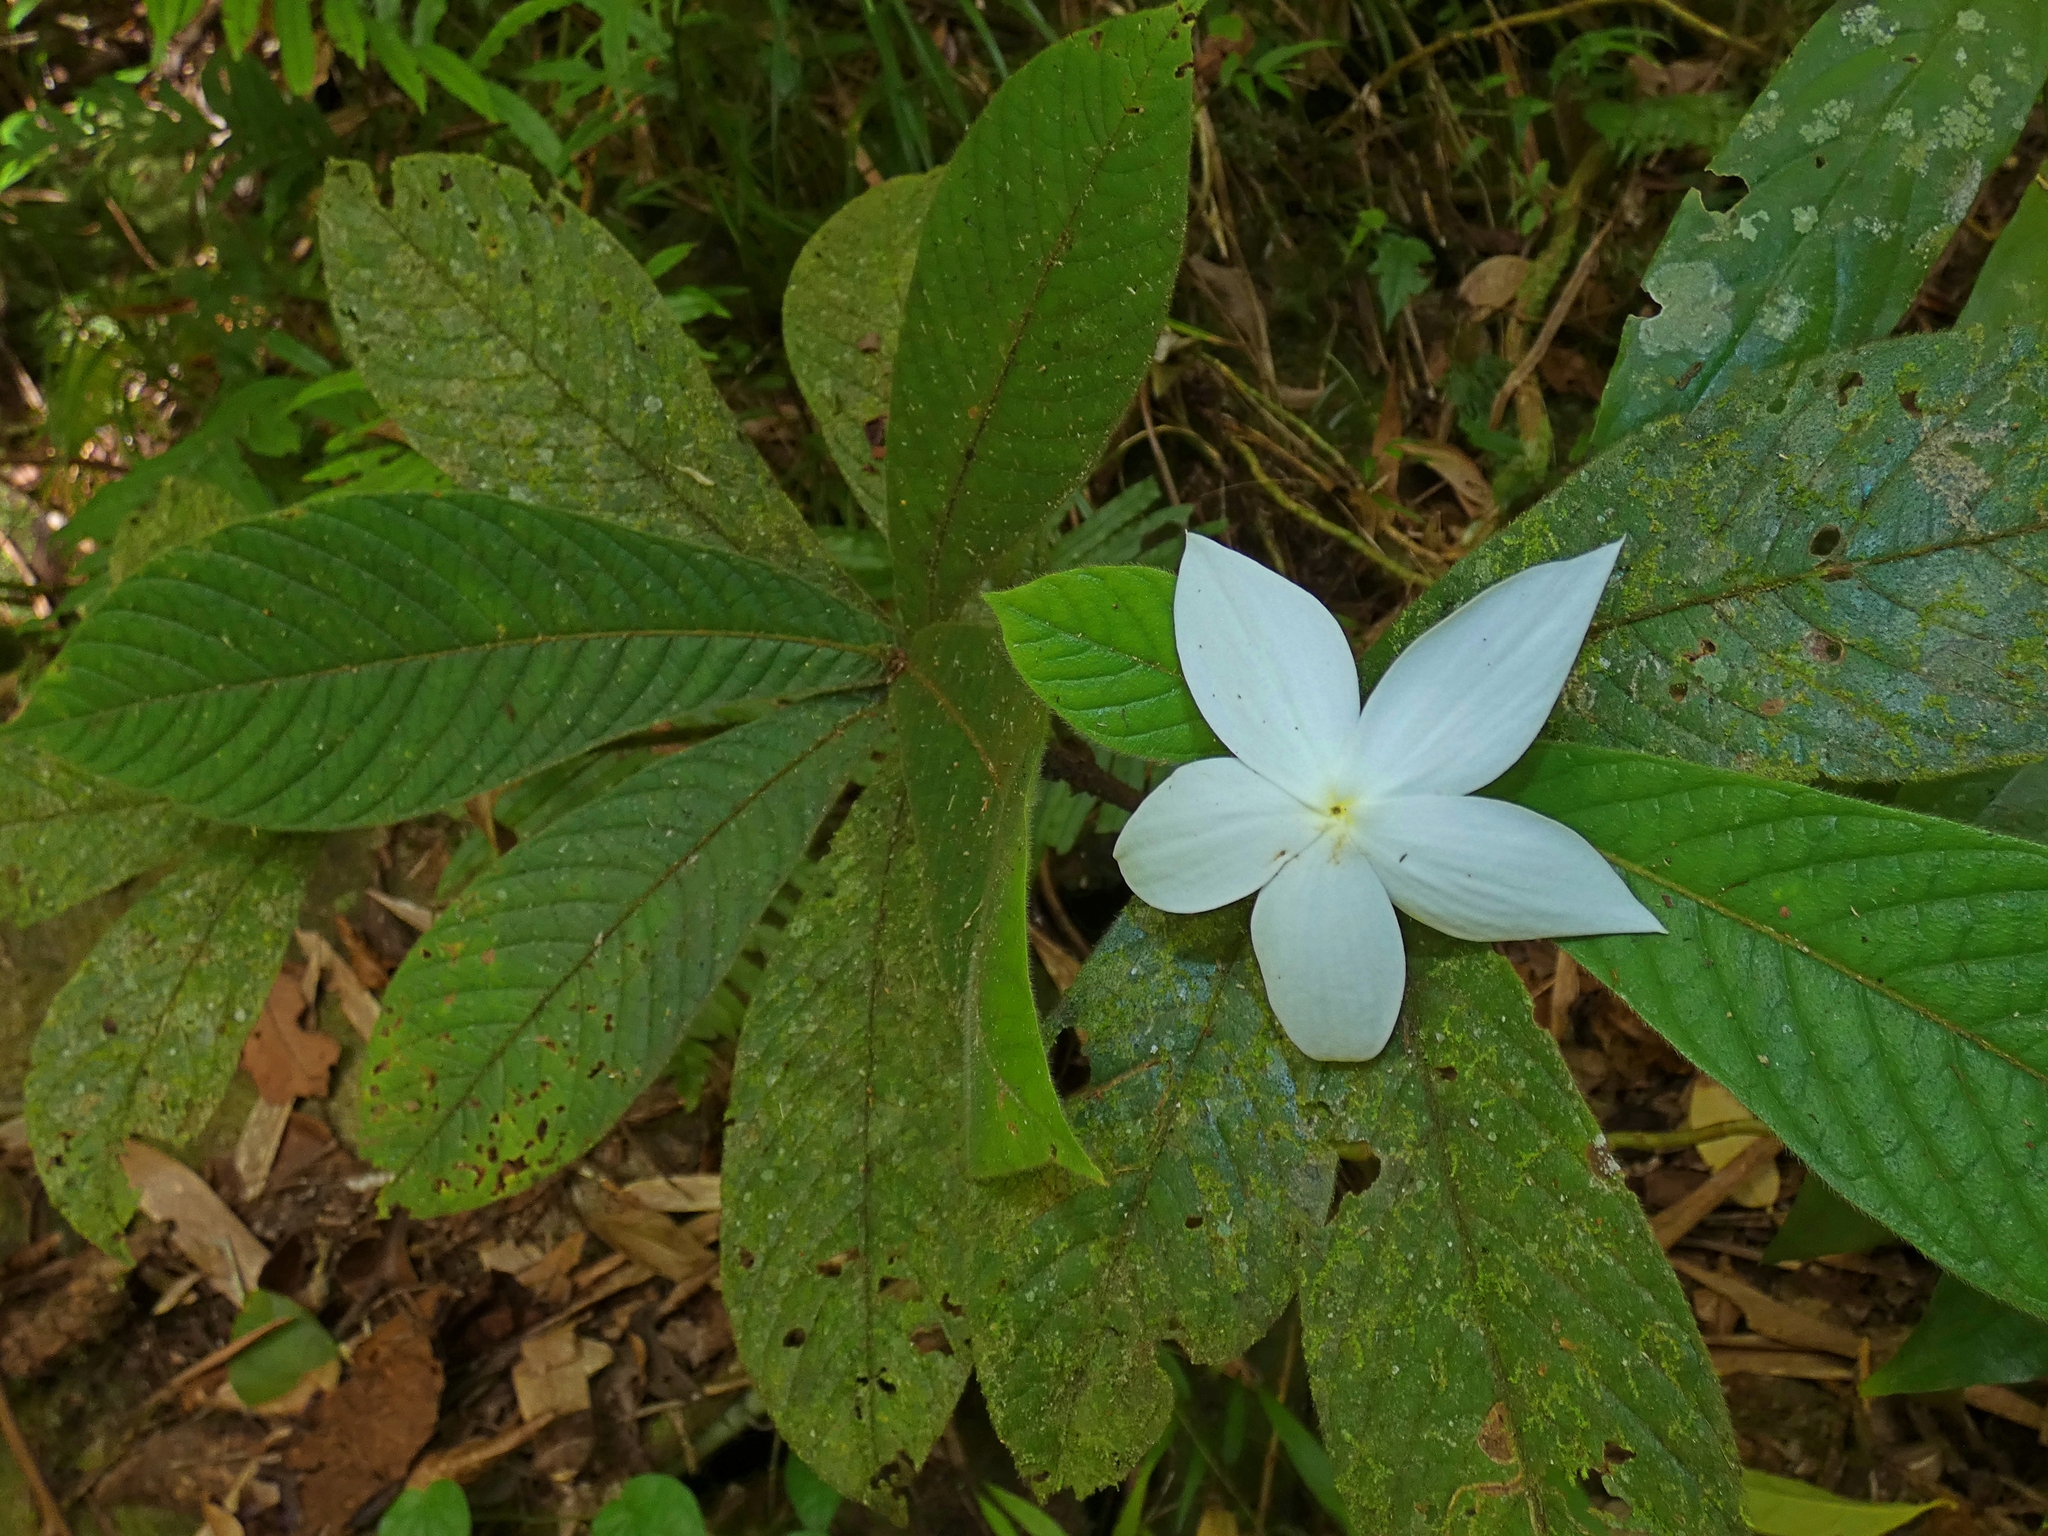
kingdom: Plantae
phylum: Tracheophyta
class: Magnoliopsida
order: Gentianales
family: Rubiaceae
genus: Atractocarpus
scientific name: Atractocarpus hirtus
